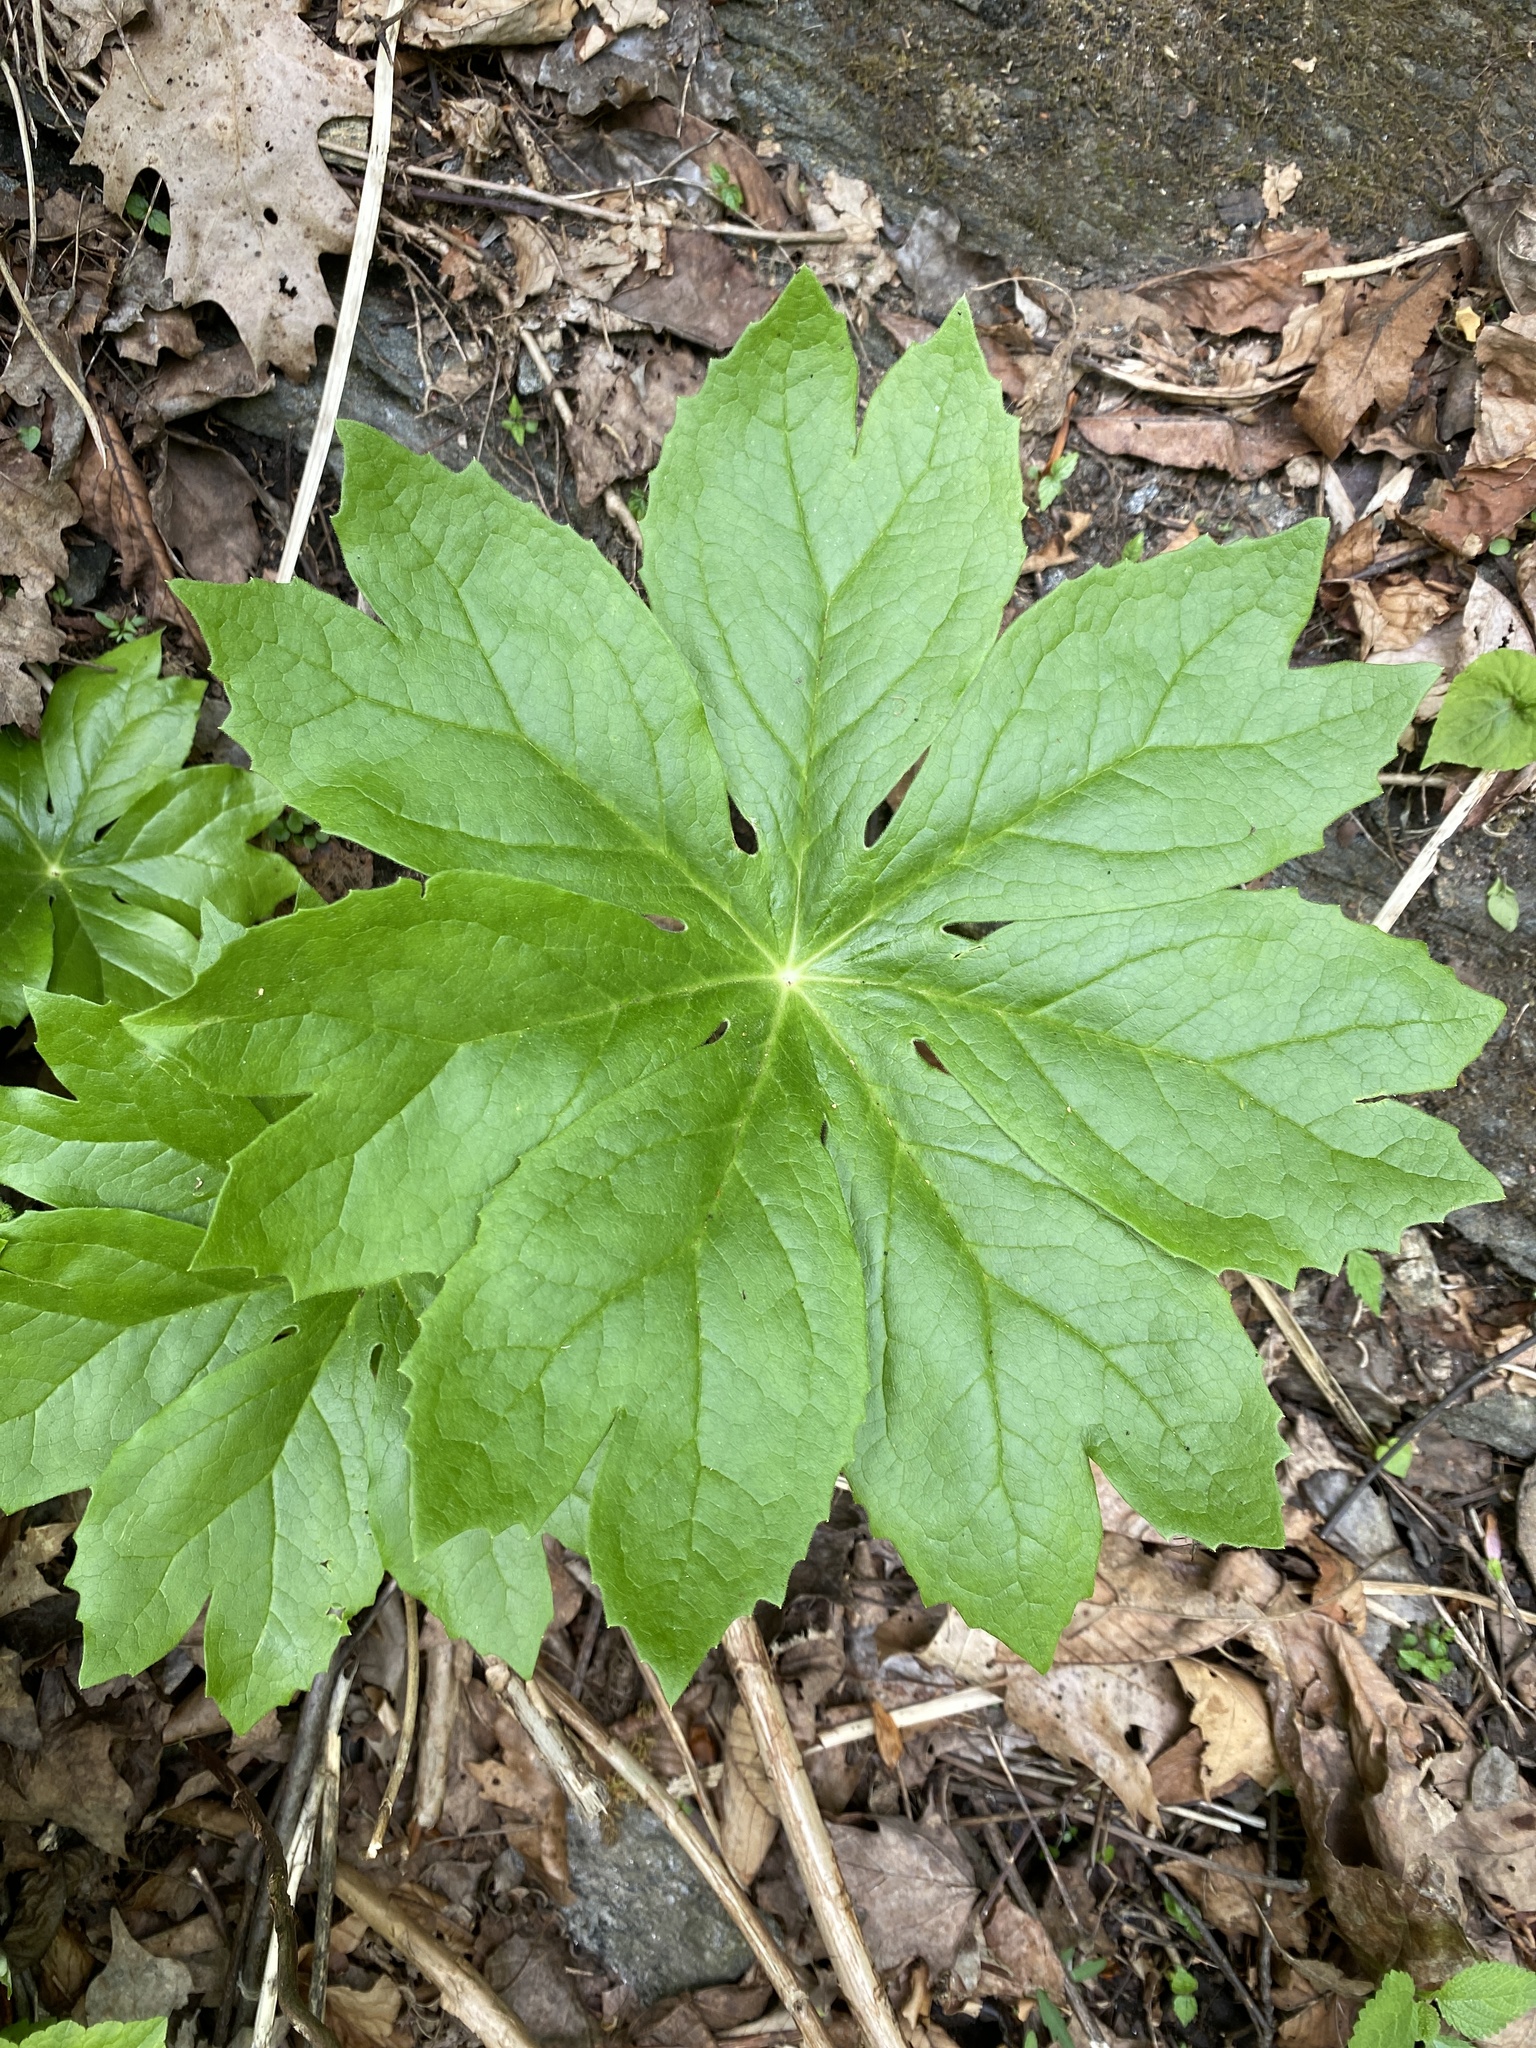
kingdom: Plantae
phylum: Tracheophyta
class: Magnoliopsida
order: Ranunculales
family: Berberidaceae
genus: Podophyllum
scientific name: Podophyllum peltatum
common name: Wild mandrake
